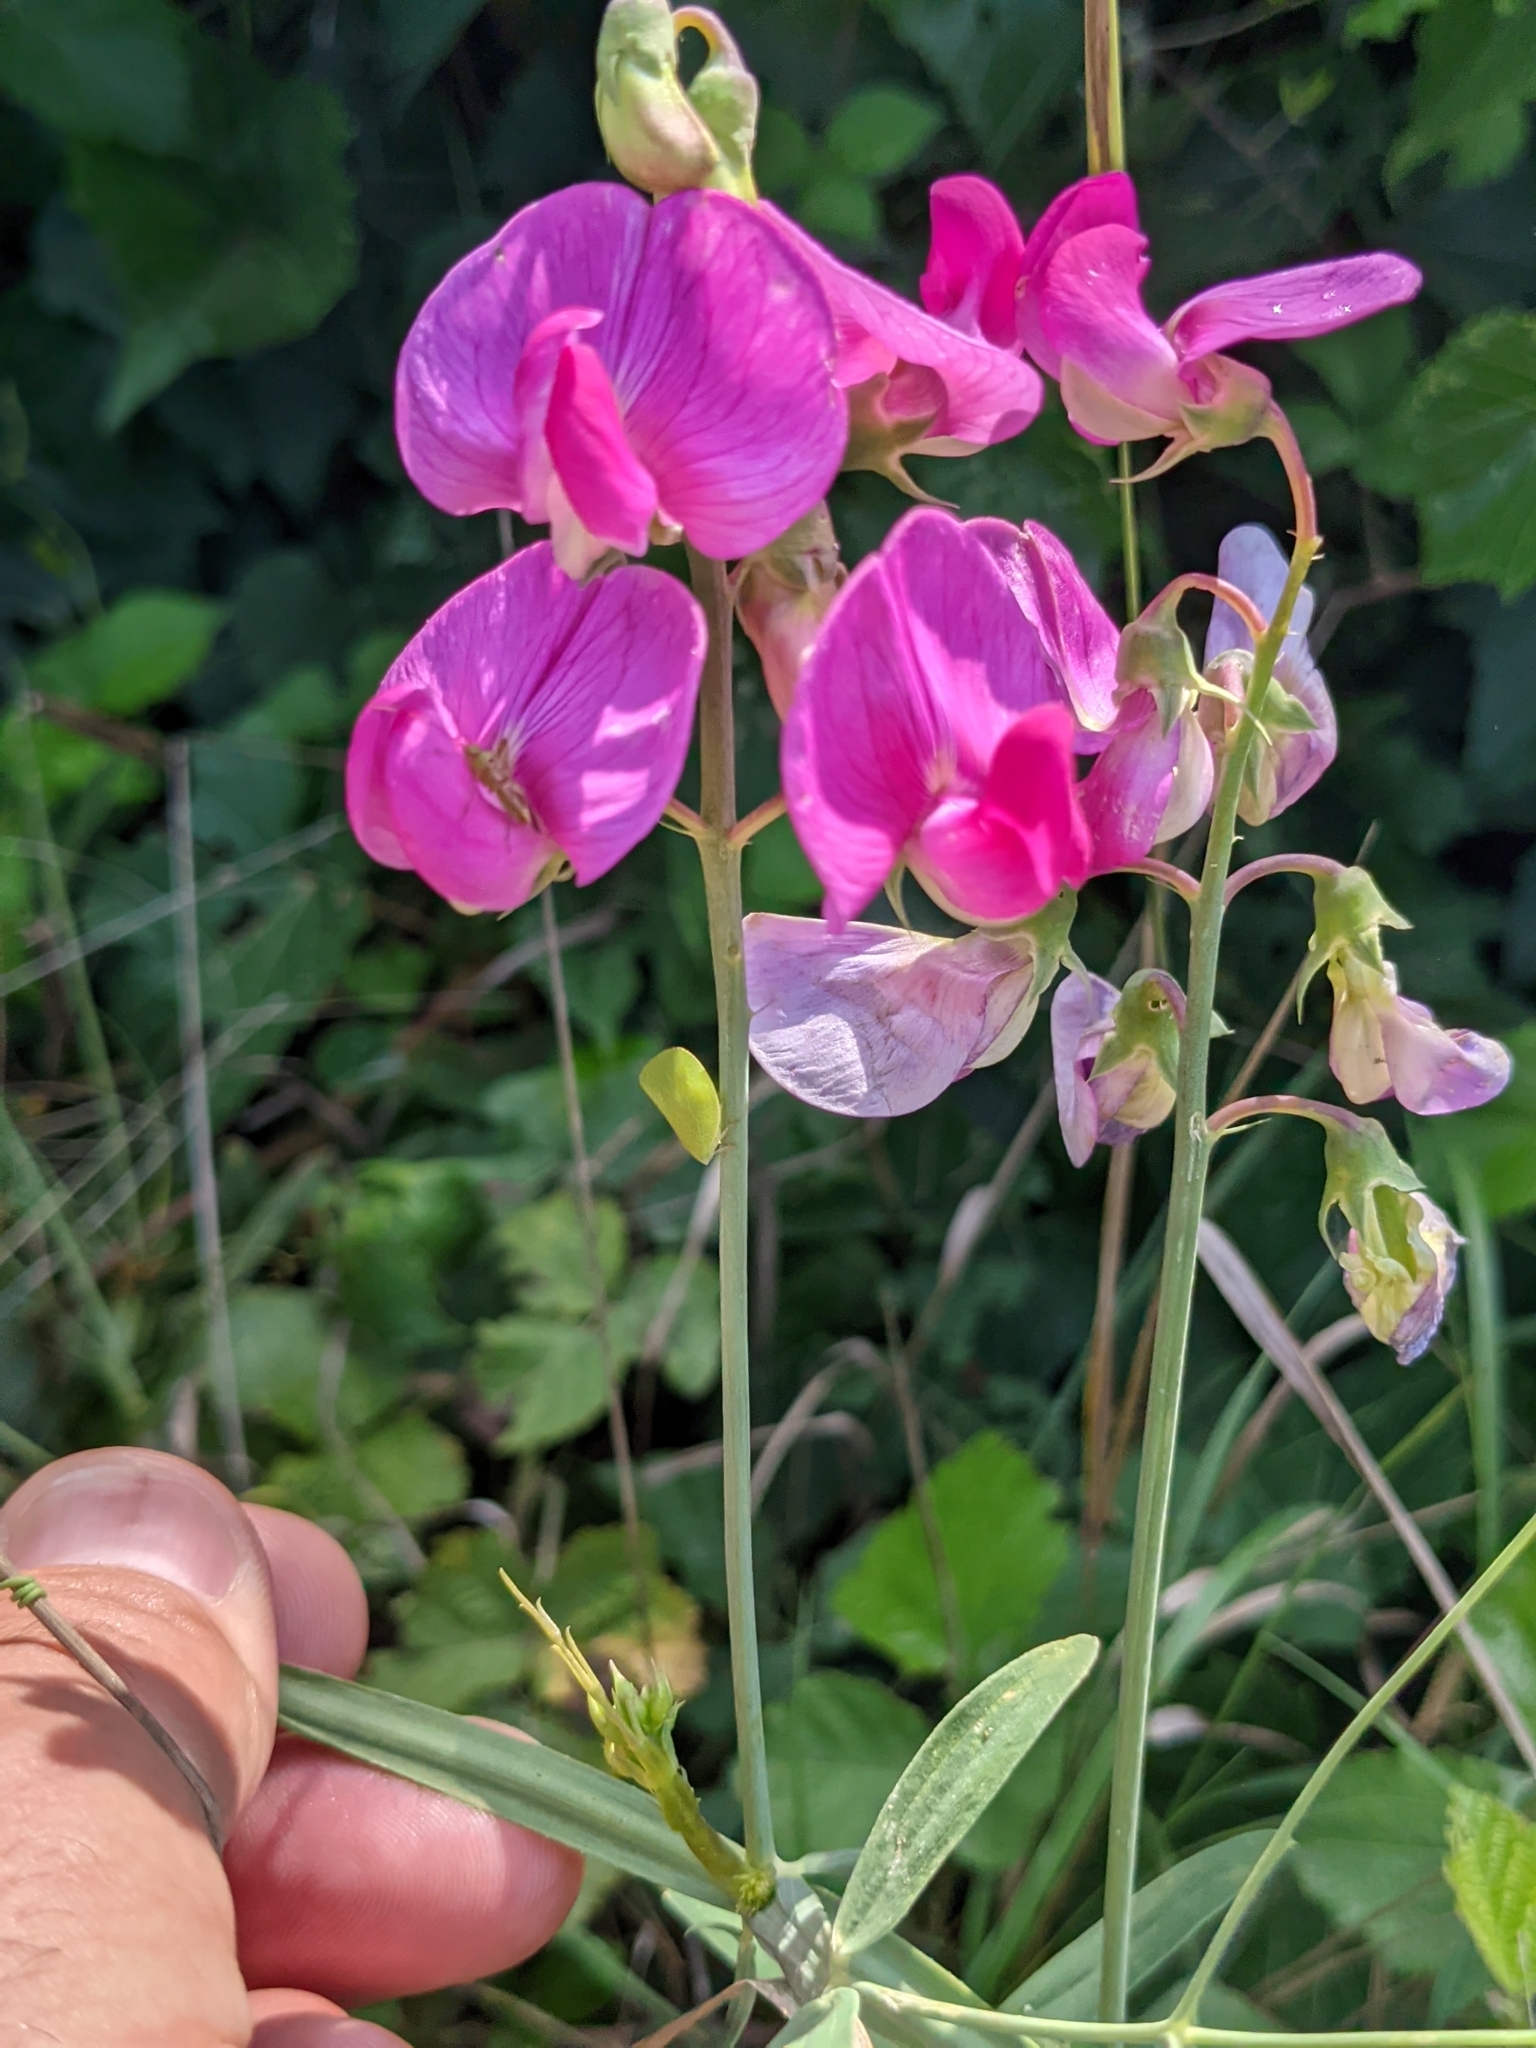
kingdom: Plantae
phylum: Tracheophyta
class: Magnoliopsida
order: Fabales
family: Fabaceae
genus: Lathyrus
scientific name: Lathyrus sylvestris
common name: Flat pea
